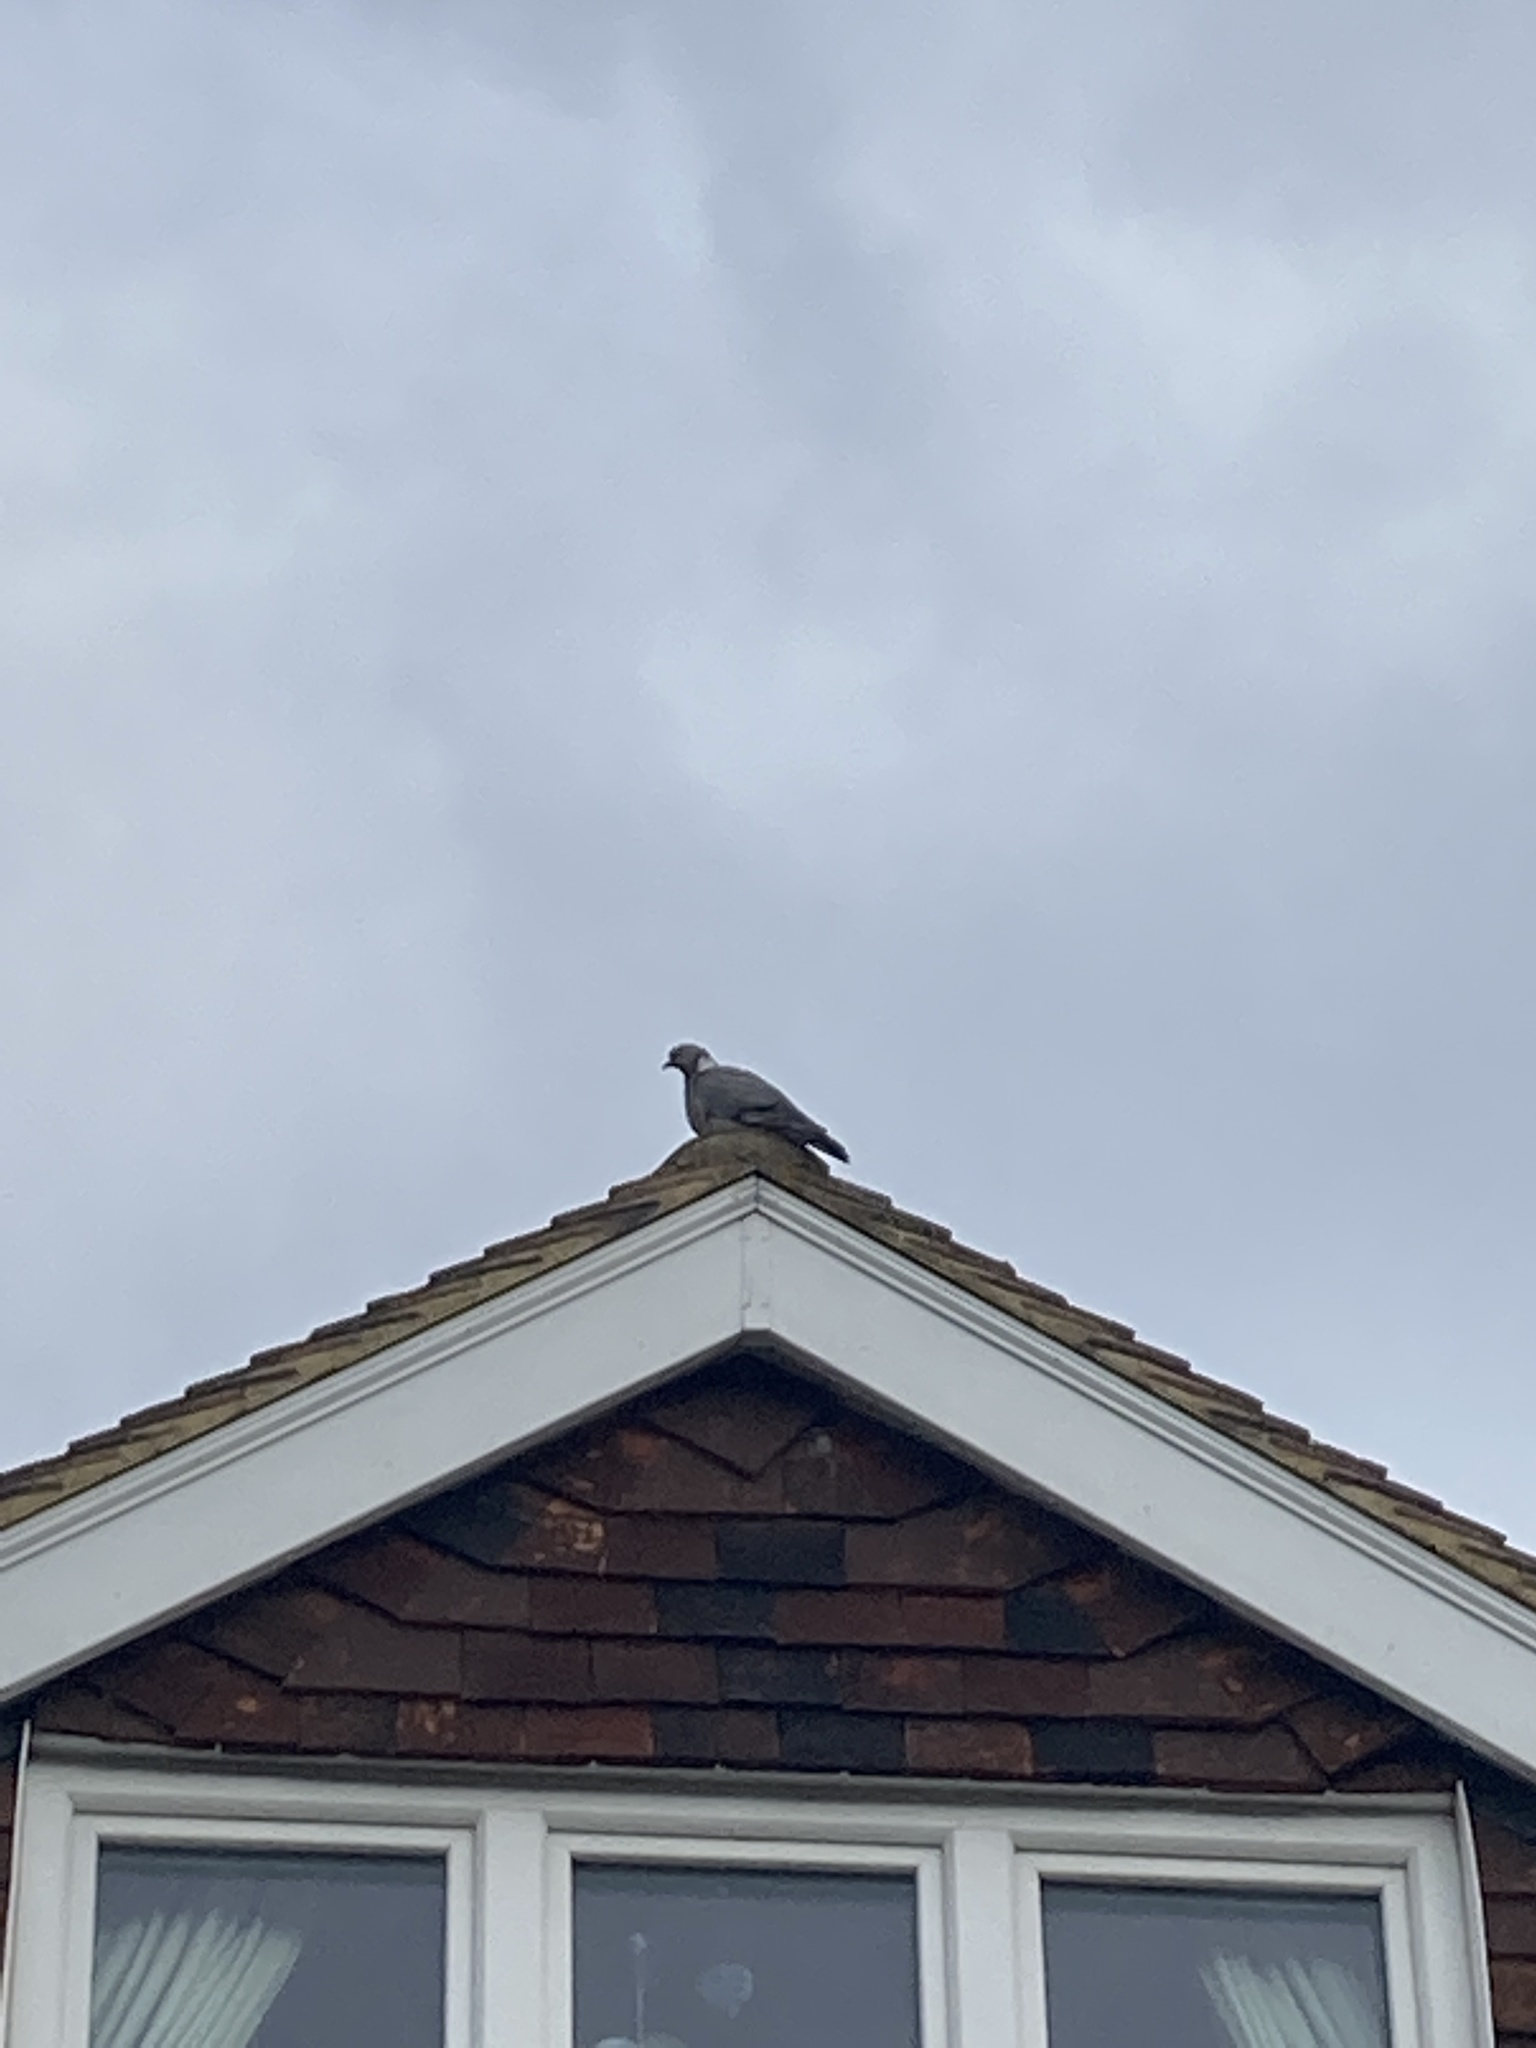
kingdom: Animalia
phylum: Chordata
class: Aves
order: Columbiformes
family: Columbidae
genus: Columba
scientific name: Columba palumbus
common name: Common wood pigeon
